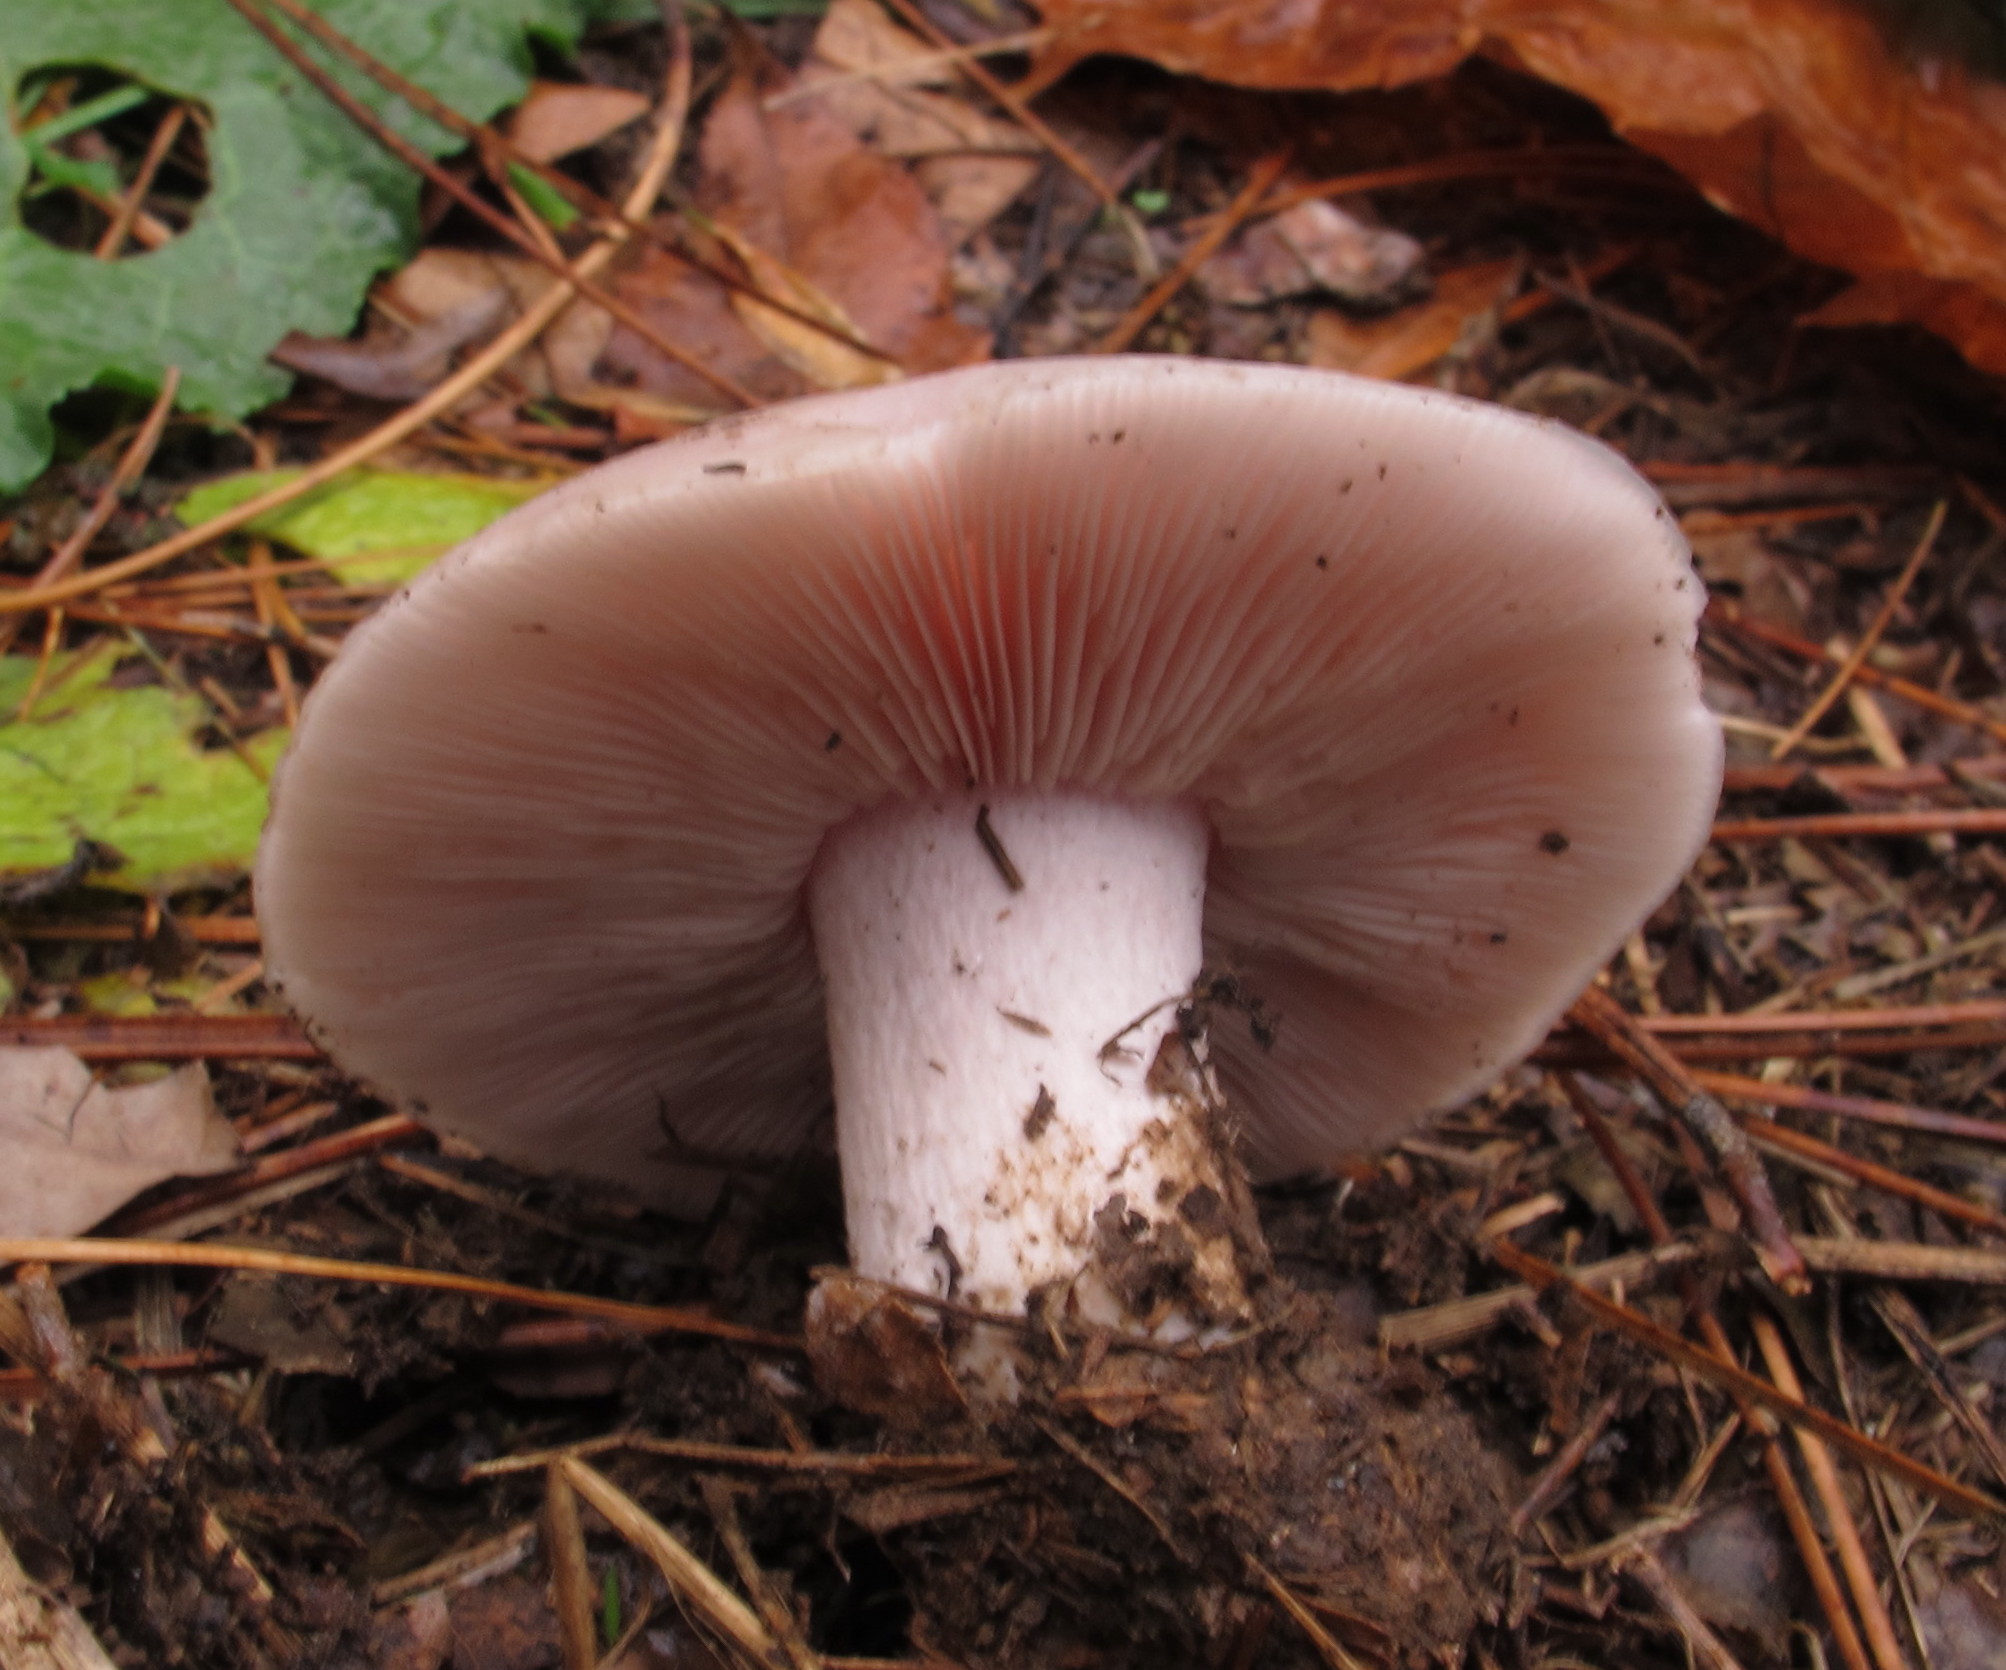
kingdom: Fungi
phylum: Basidiomycota
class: Agaricomycetes
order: Agaricales
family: Tricholomataceae
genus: Collybia
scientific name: Collybia
